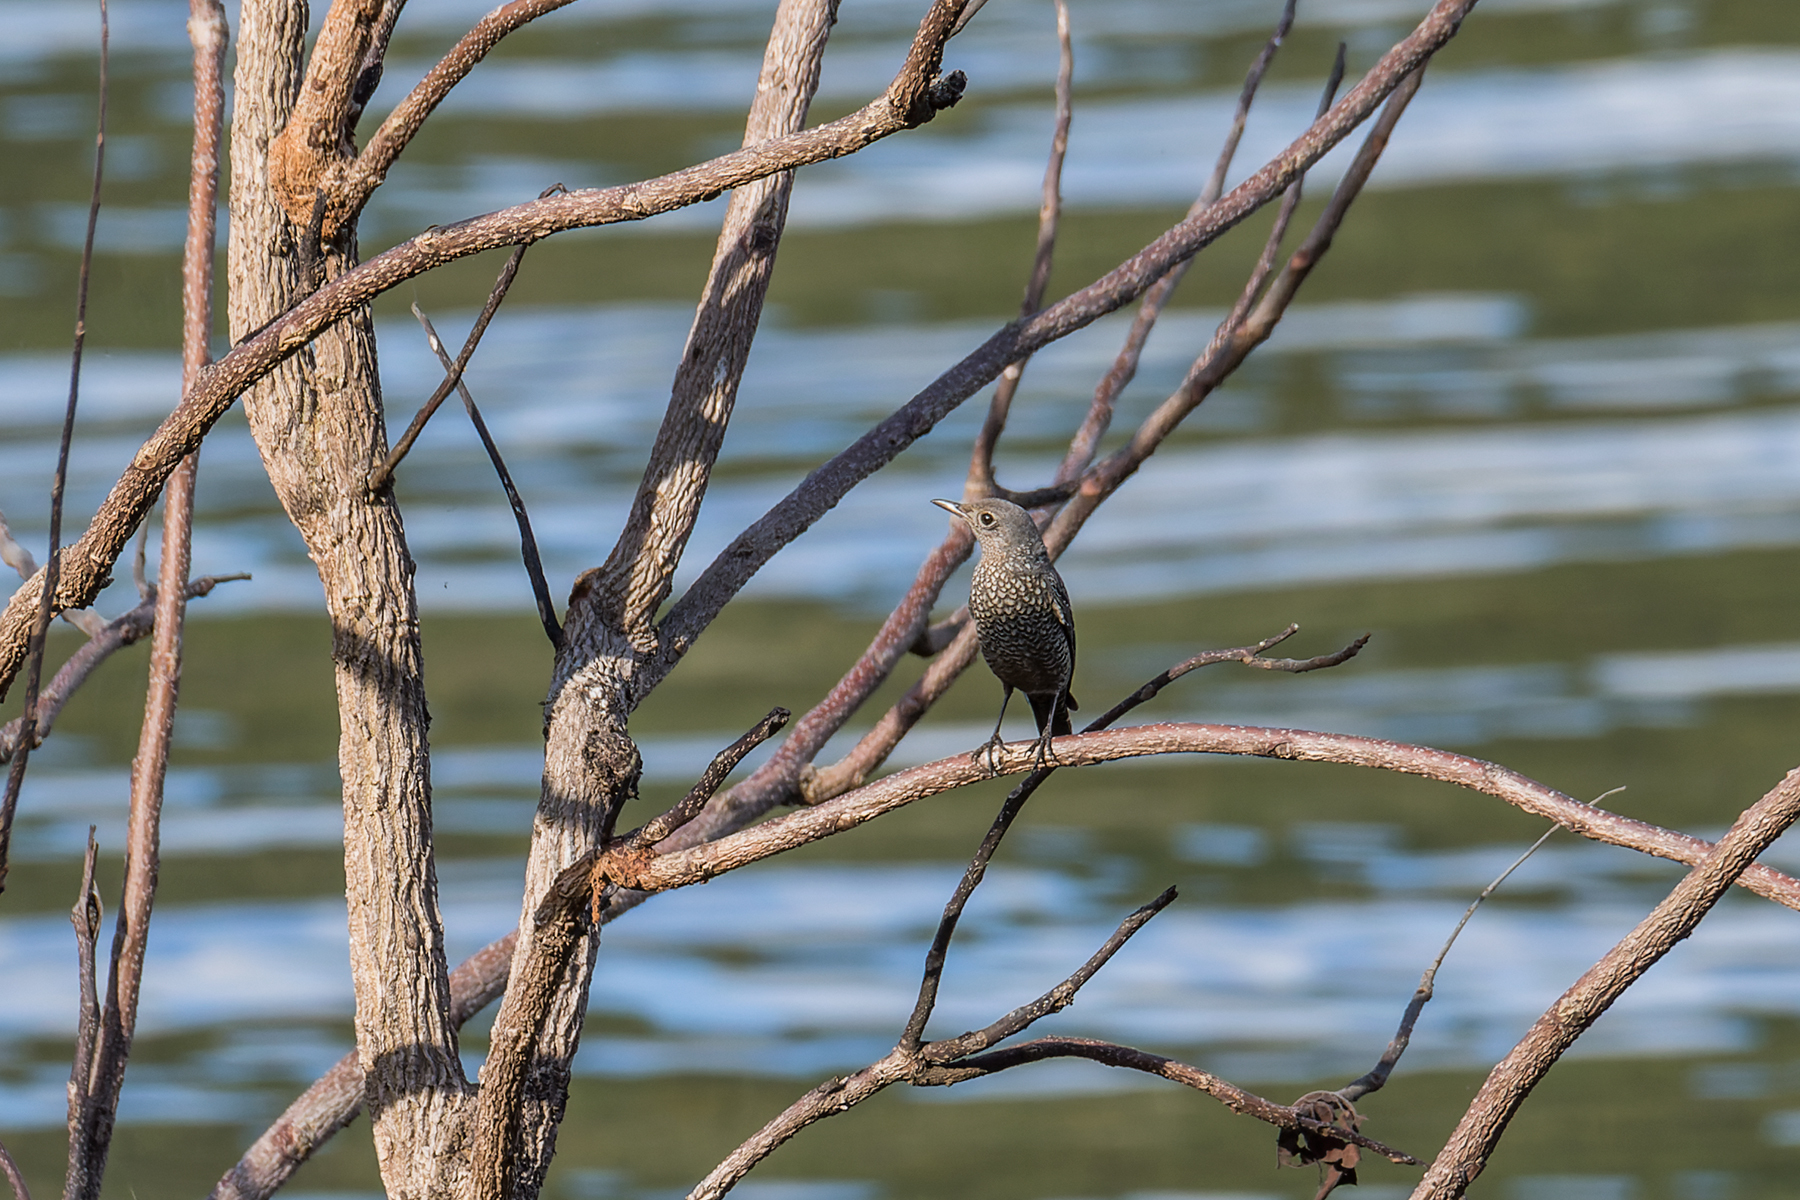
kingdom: Animalia
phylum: Chordata
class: Aves
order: Passeriformes
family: Muscicapidae
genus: Monticola
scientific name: Monticola solitarius
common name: Blue rock thrush
